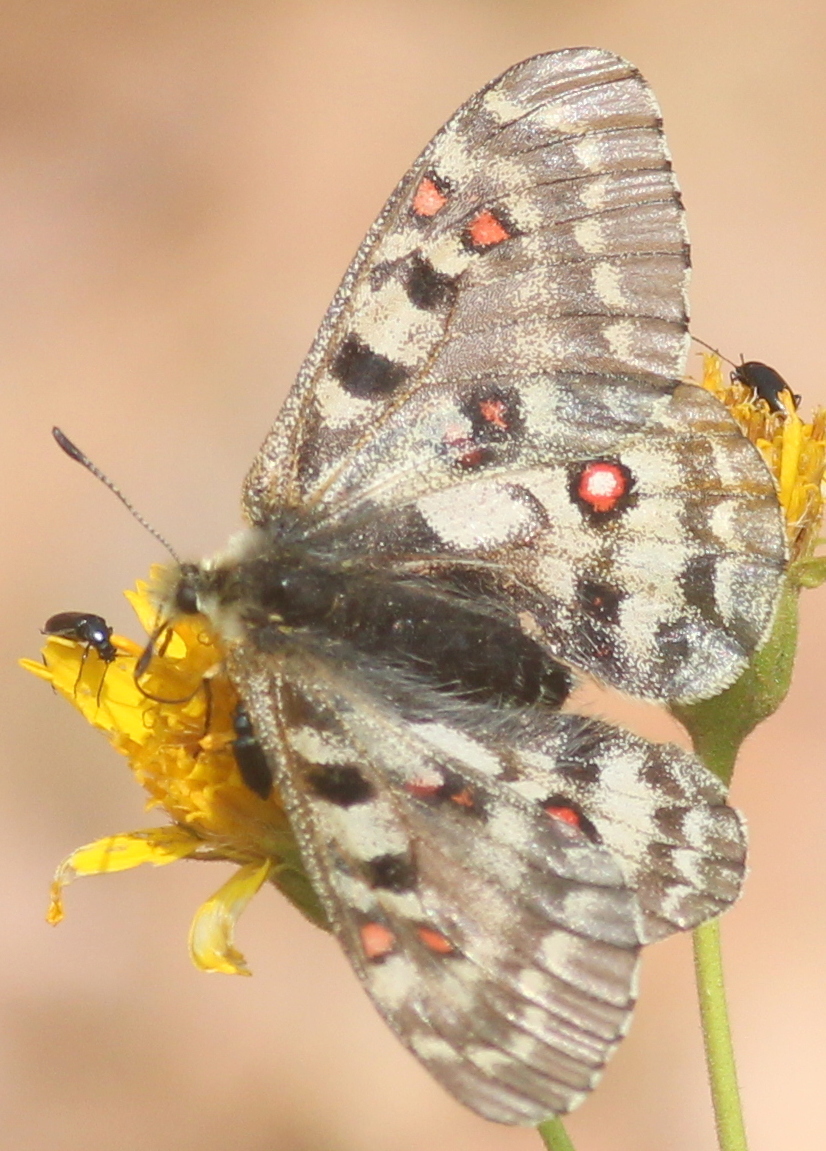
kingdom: Animalia
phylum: Arthropoda
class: Insecta
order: Lepidoptera
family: Papilionidae
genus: Parnassius
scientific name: Parnassius smintheus
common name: Mountain parnassian
